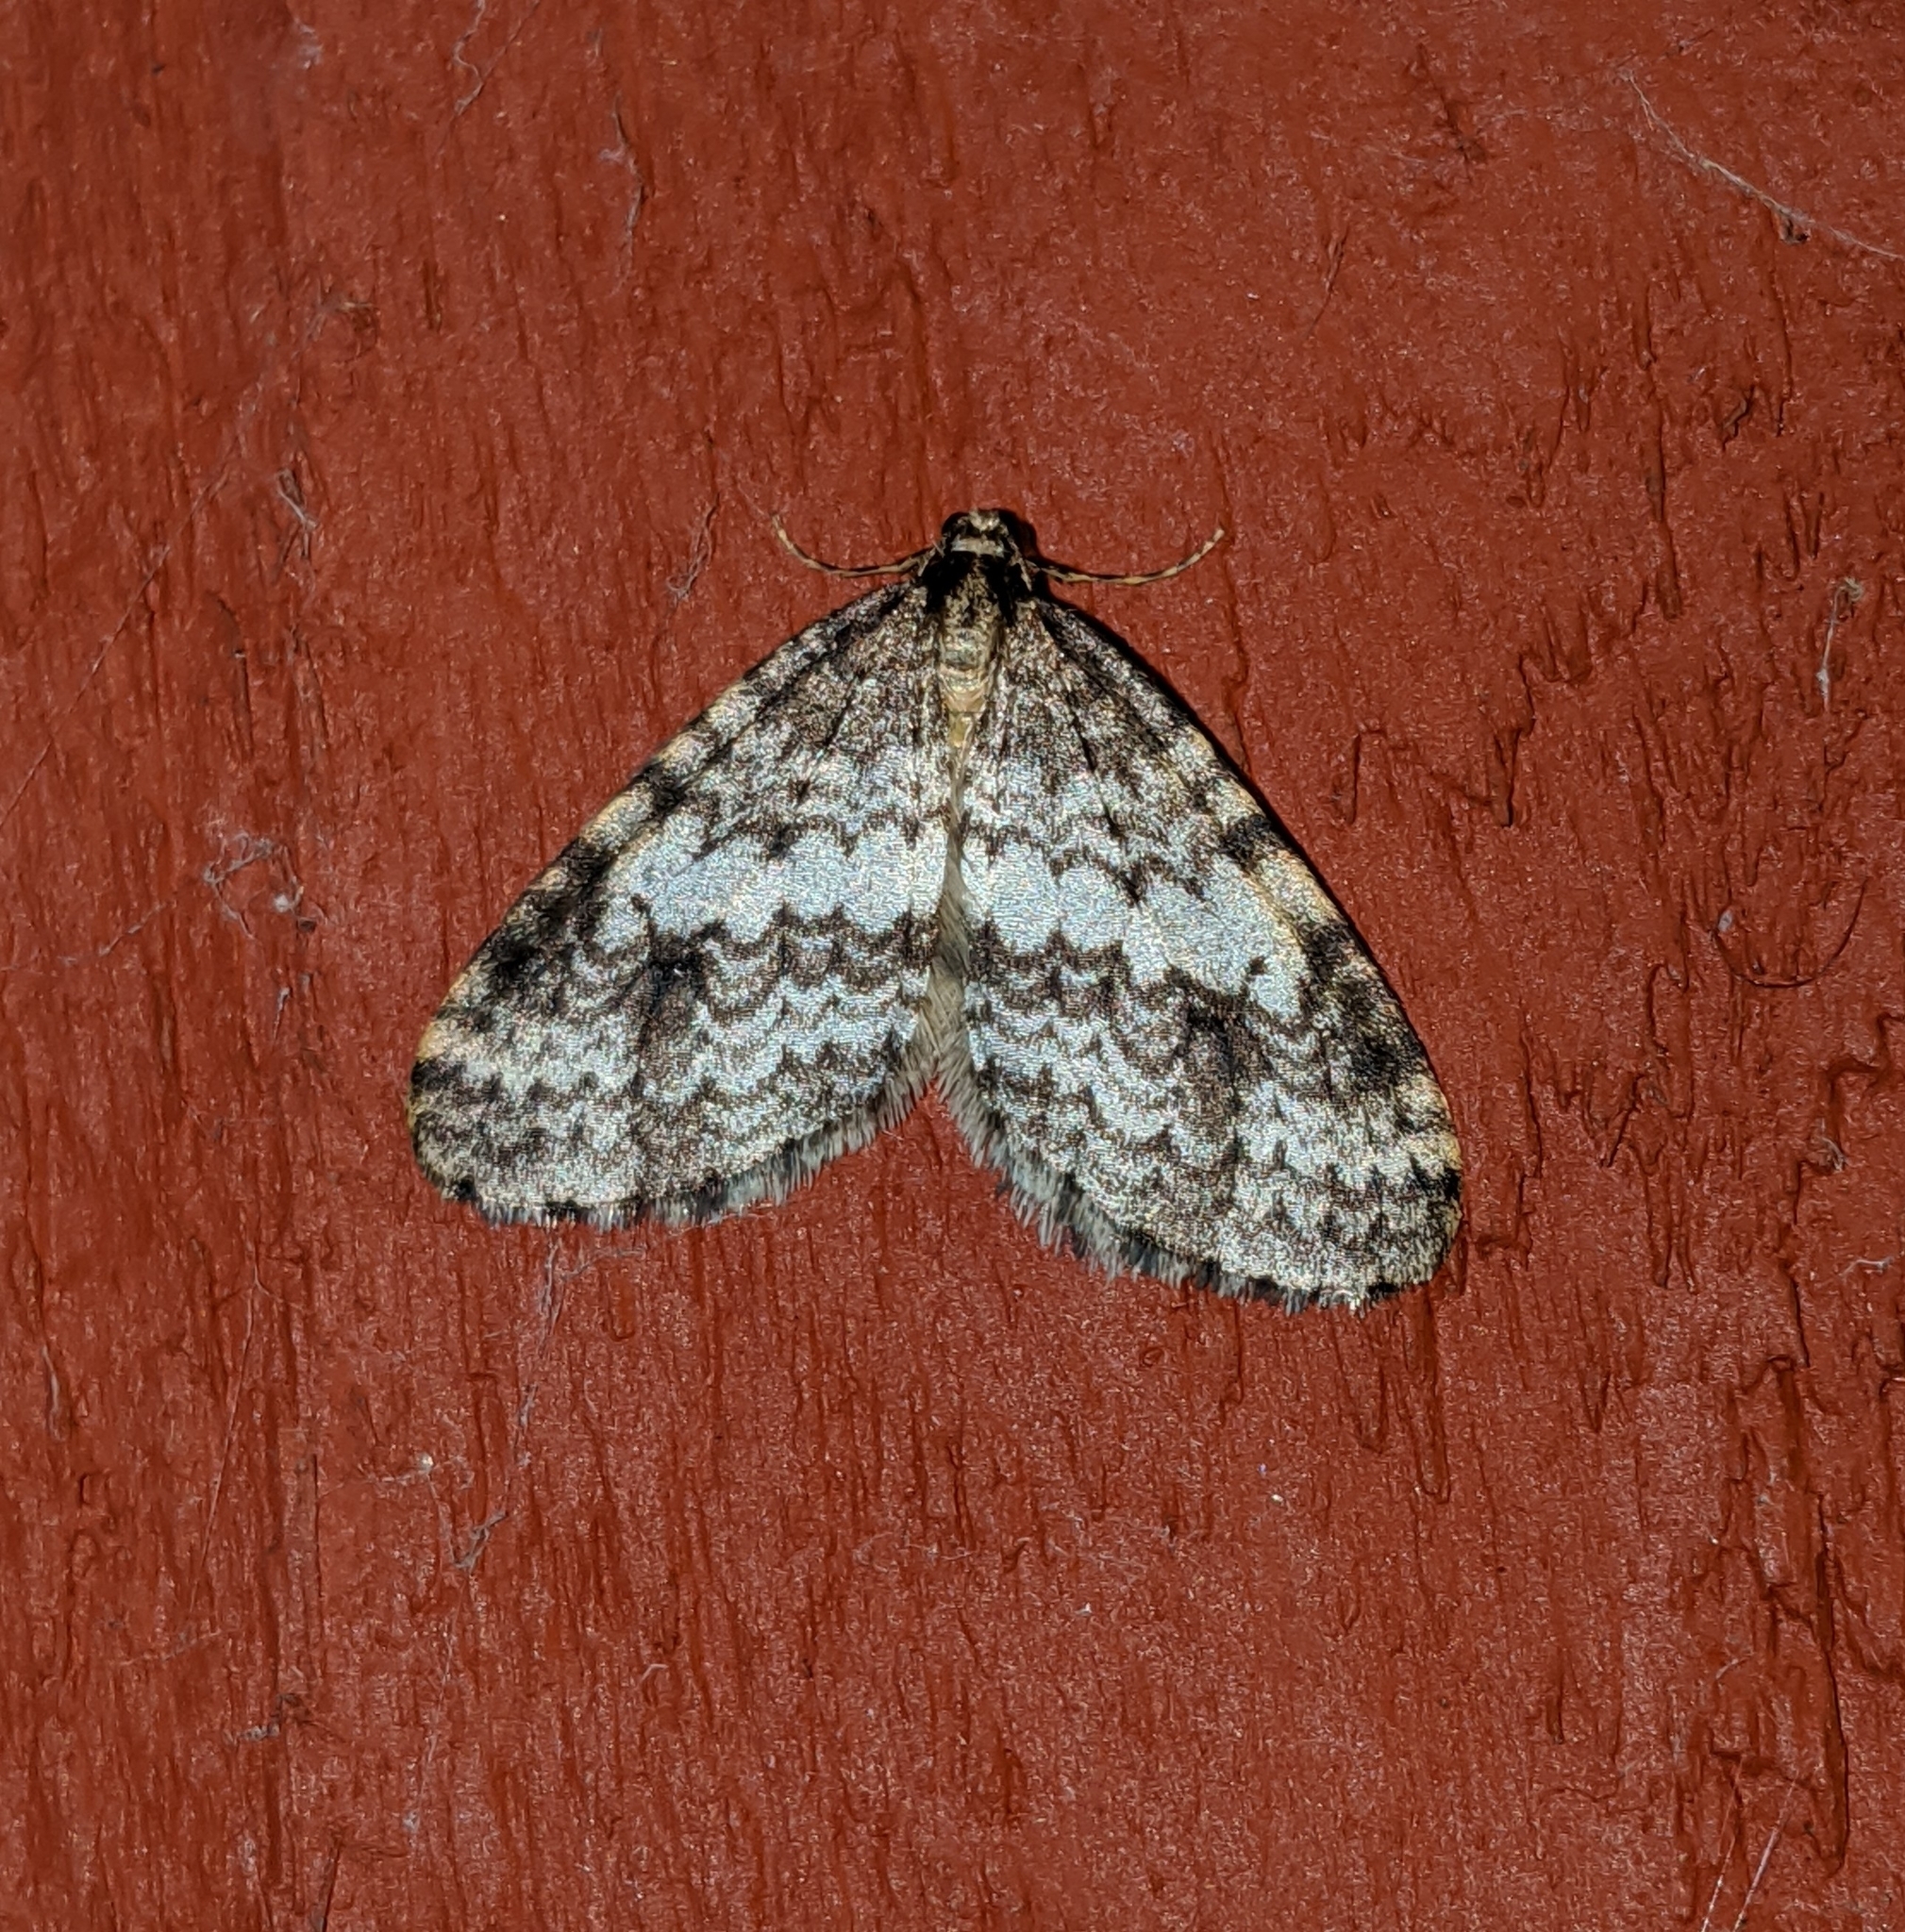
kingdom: Animalia
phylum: Arthropoda
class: Insecta
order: Lepidoptera
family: Geometridae
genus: Operophtera
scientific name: Operophtera occidentalis
